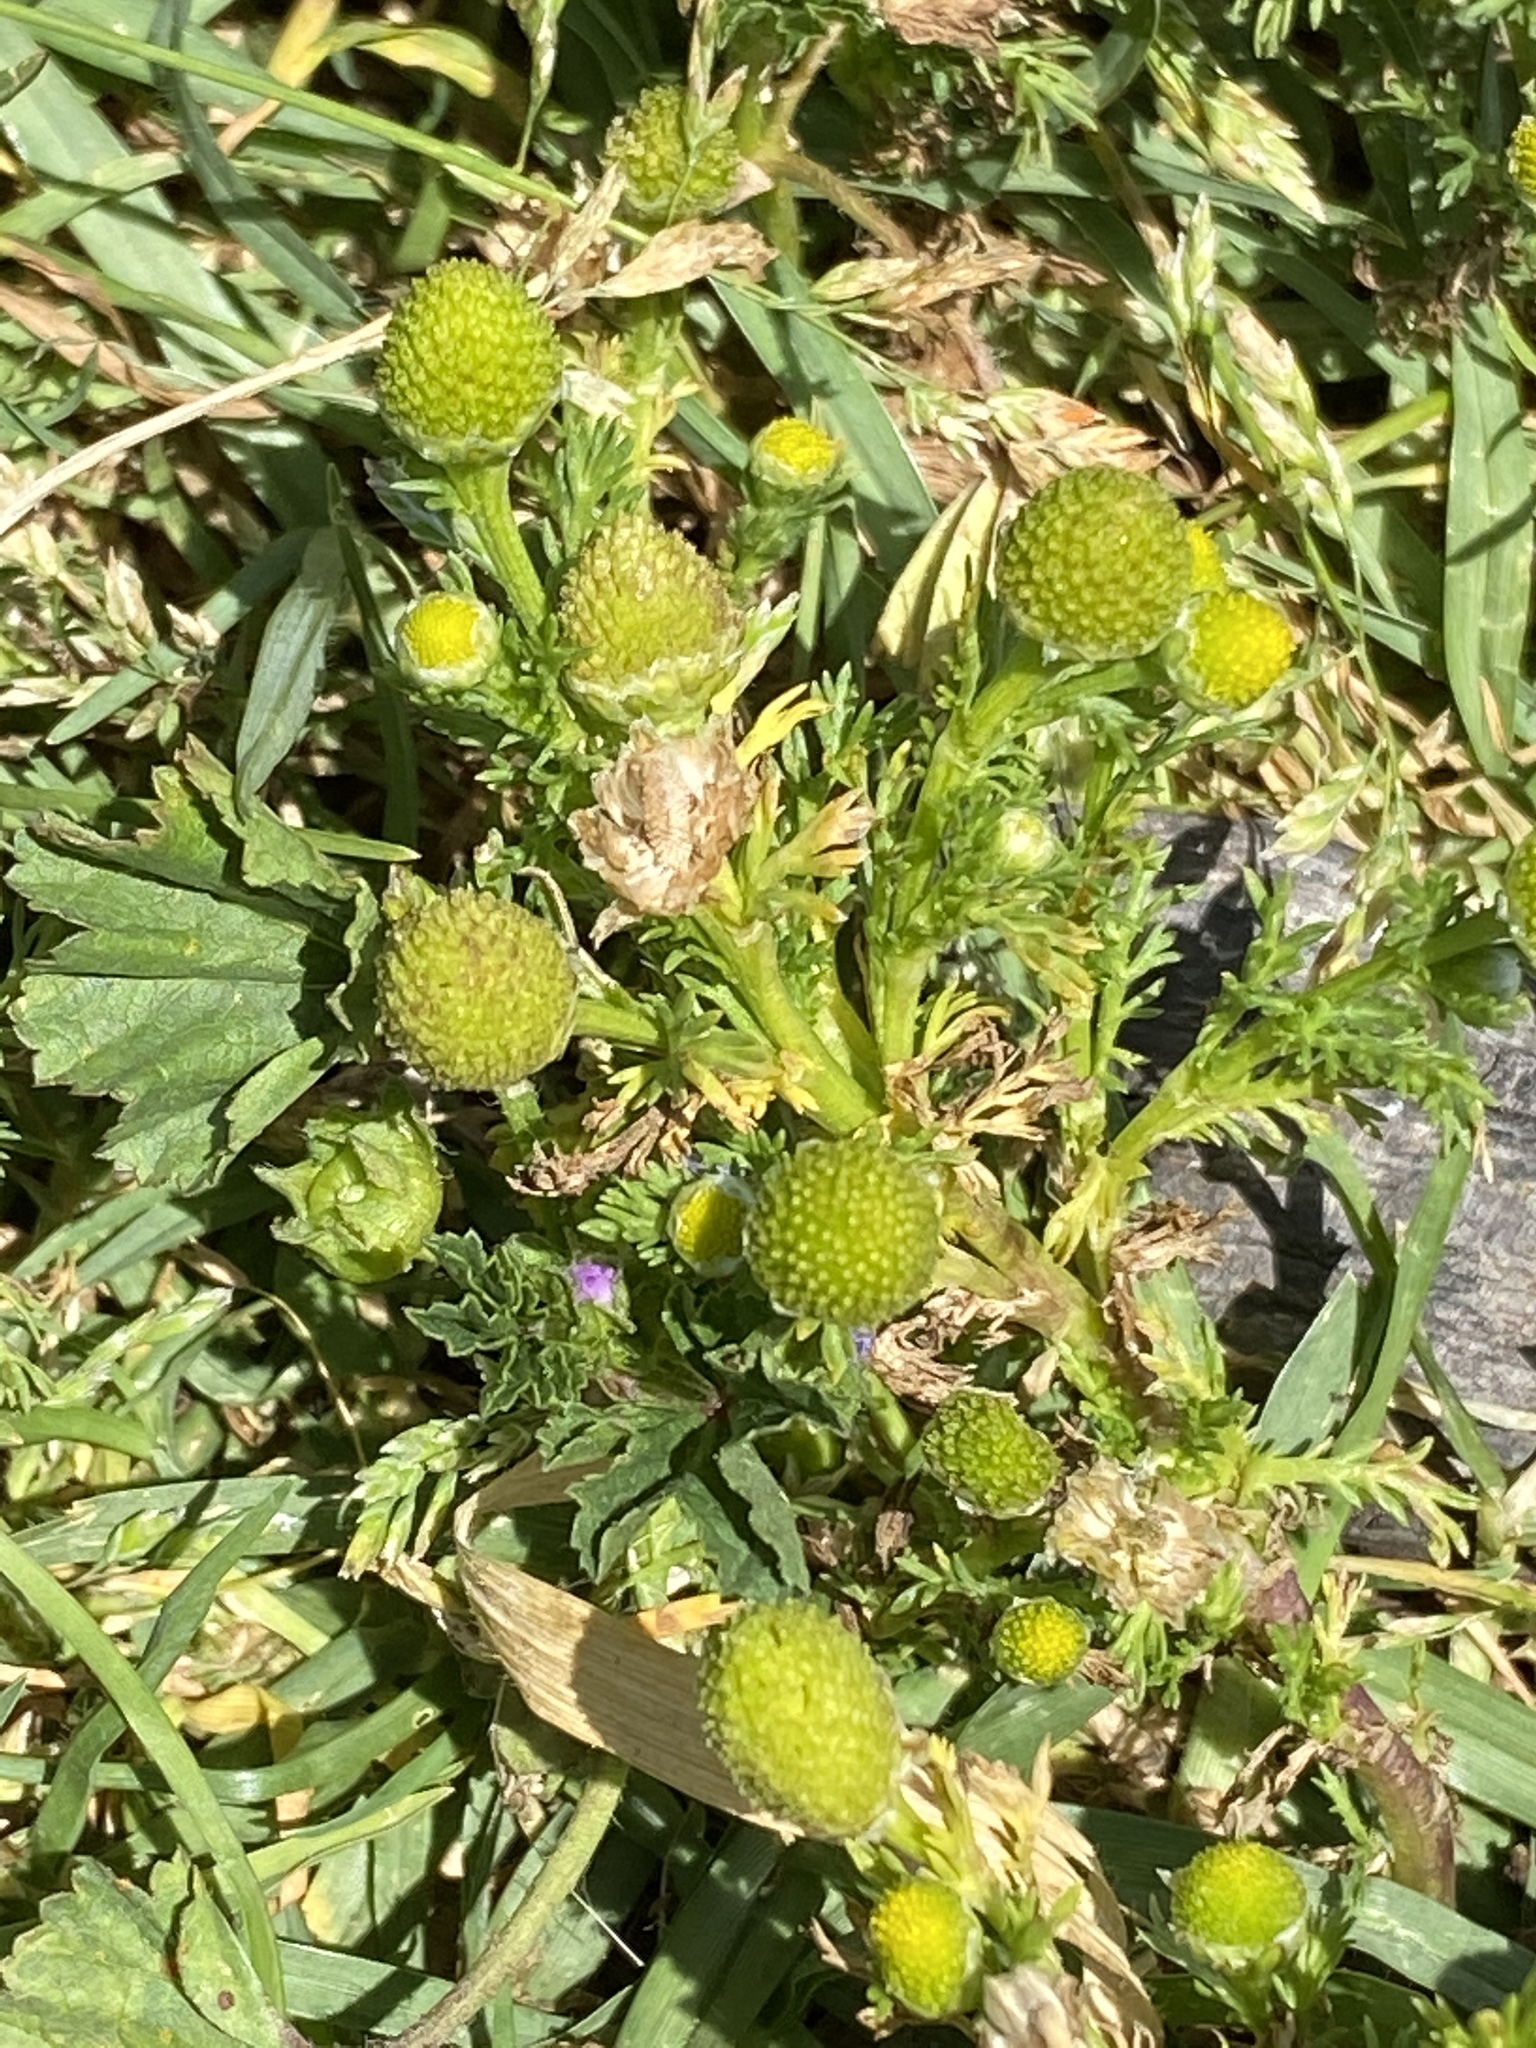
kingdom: Plantae
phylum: Tracheophyta
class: Magnoliopsida
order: Asterales
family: Asteraceae
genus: Matricaria
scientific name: Matricaria discoidea
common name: Disc mayweed
